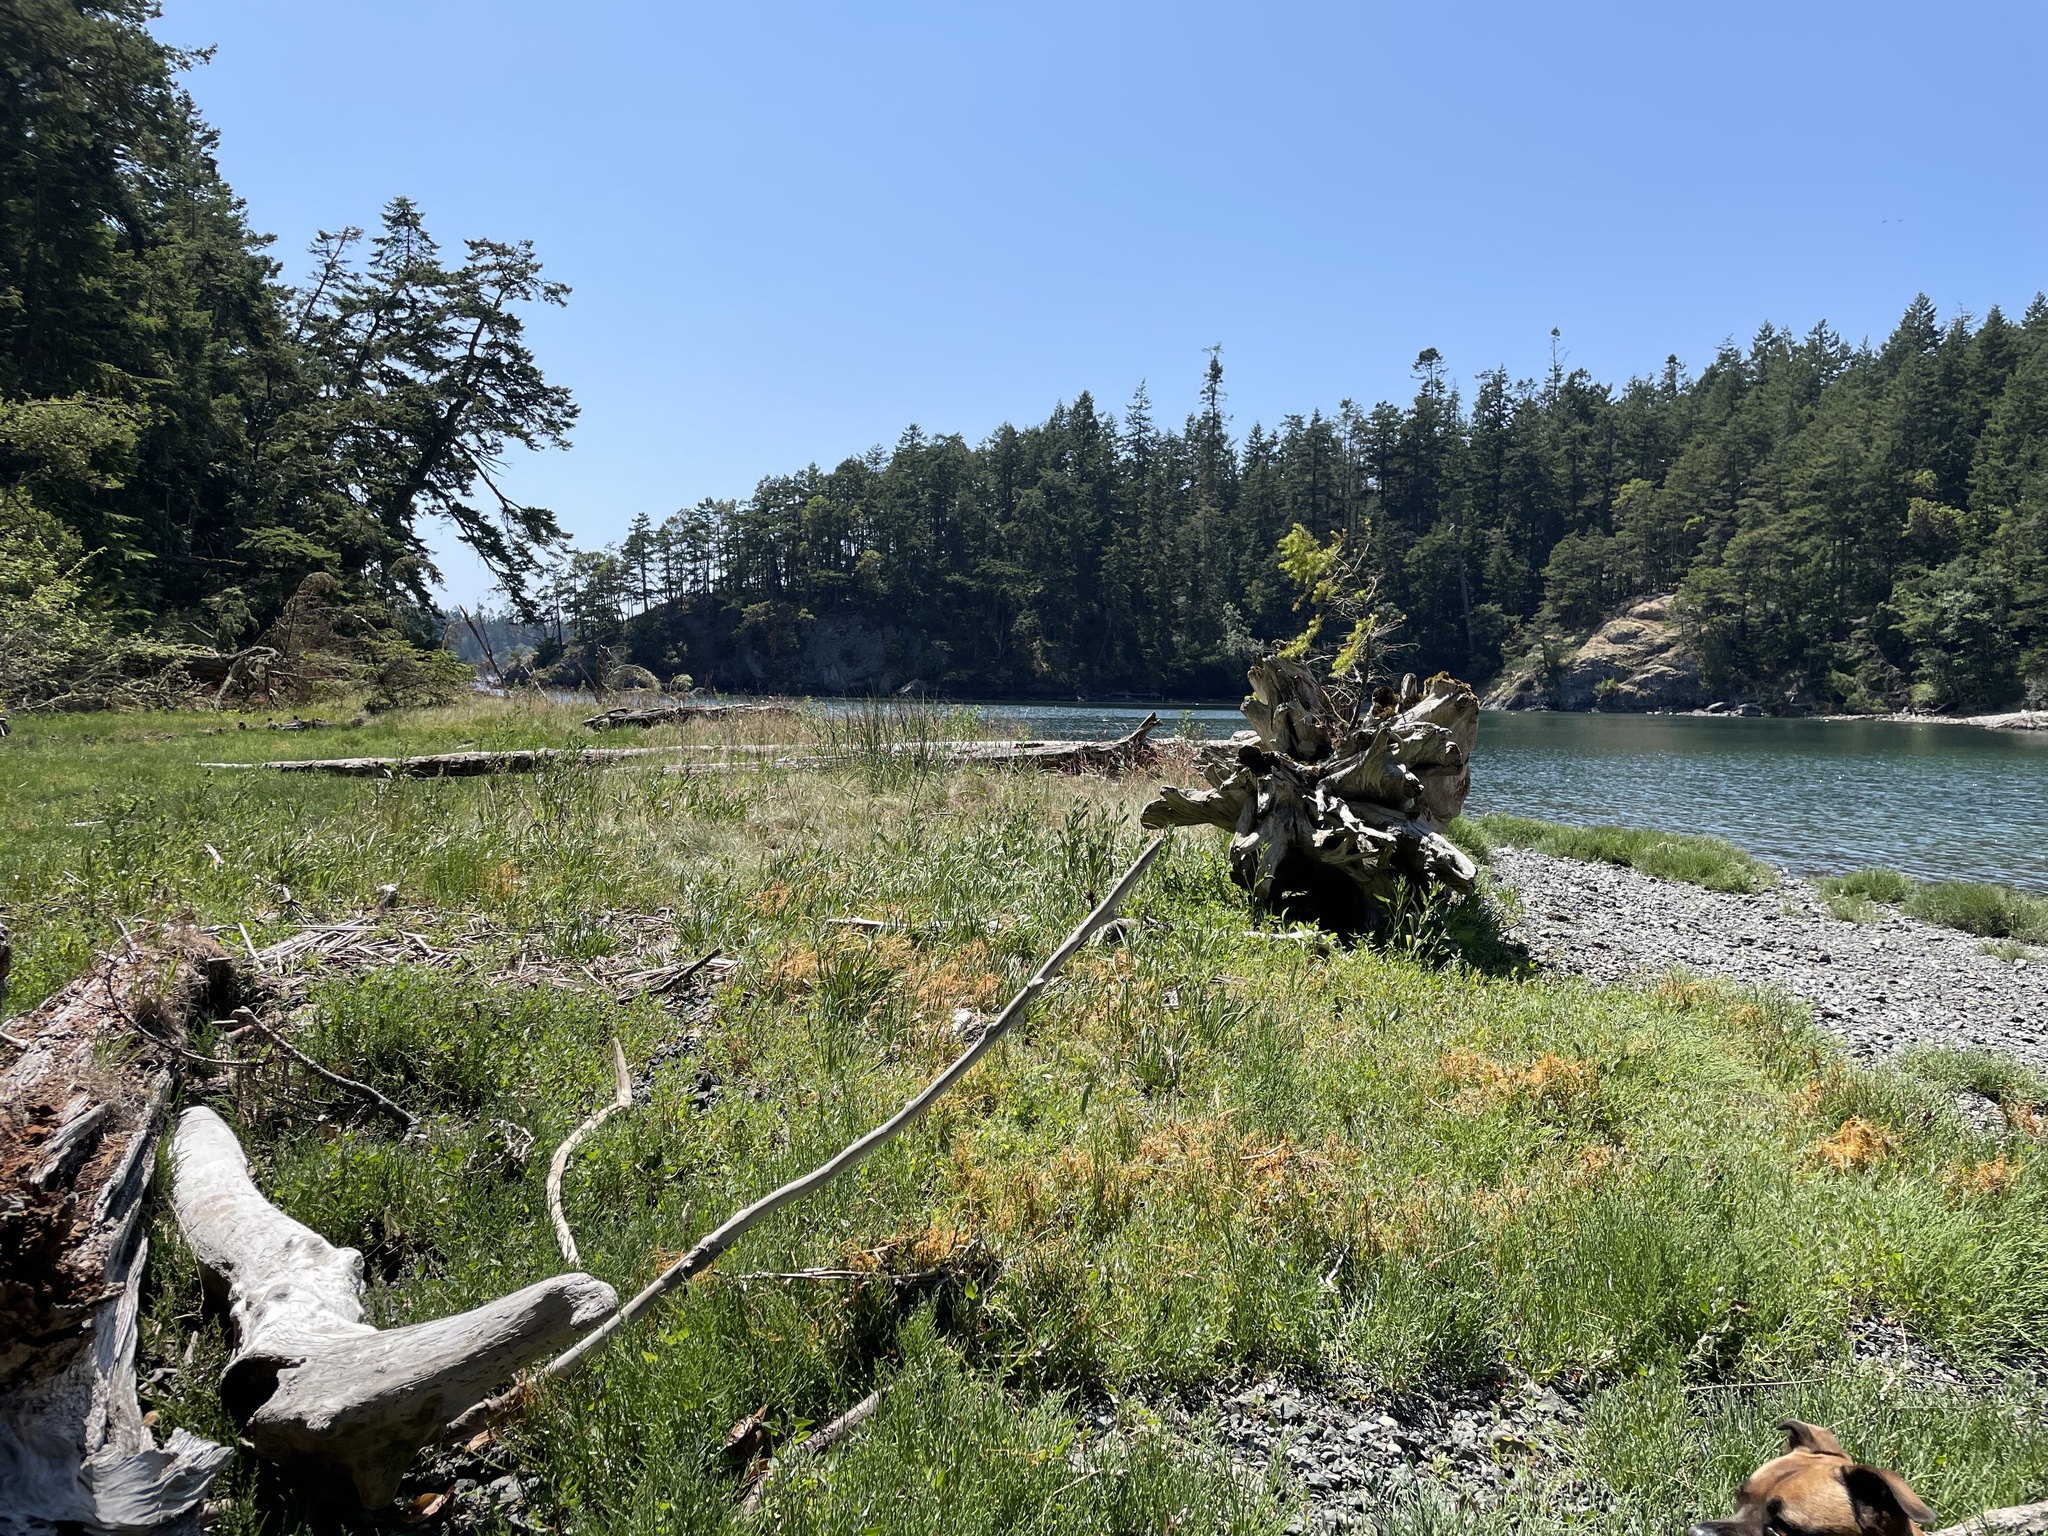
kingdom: Plantae
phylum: Tracheophyta
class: Magnoliopsida
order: Solanales
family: Convolvulaceae
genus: Cuscuta
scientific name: Cuscuta pacifica
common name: Large saltmarsh dodder
